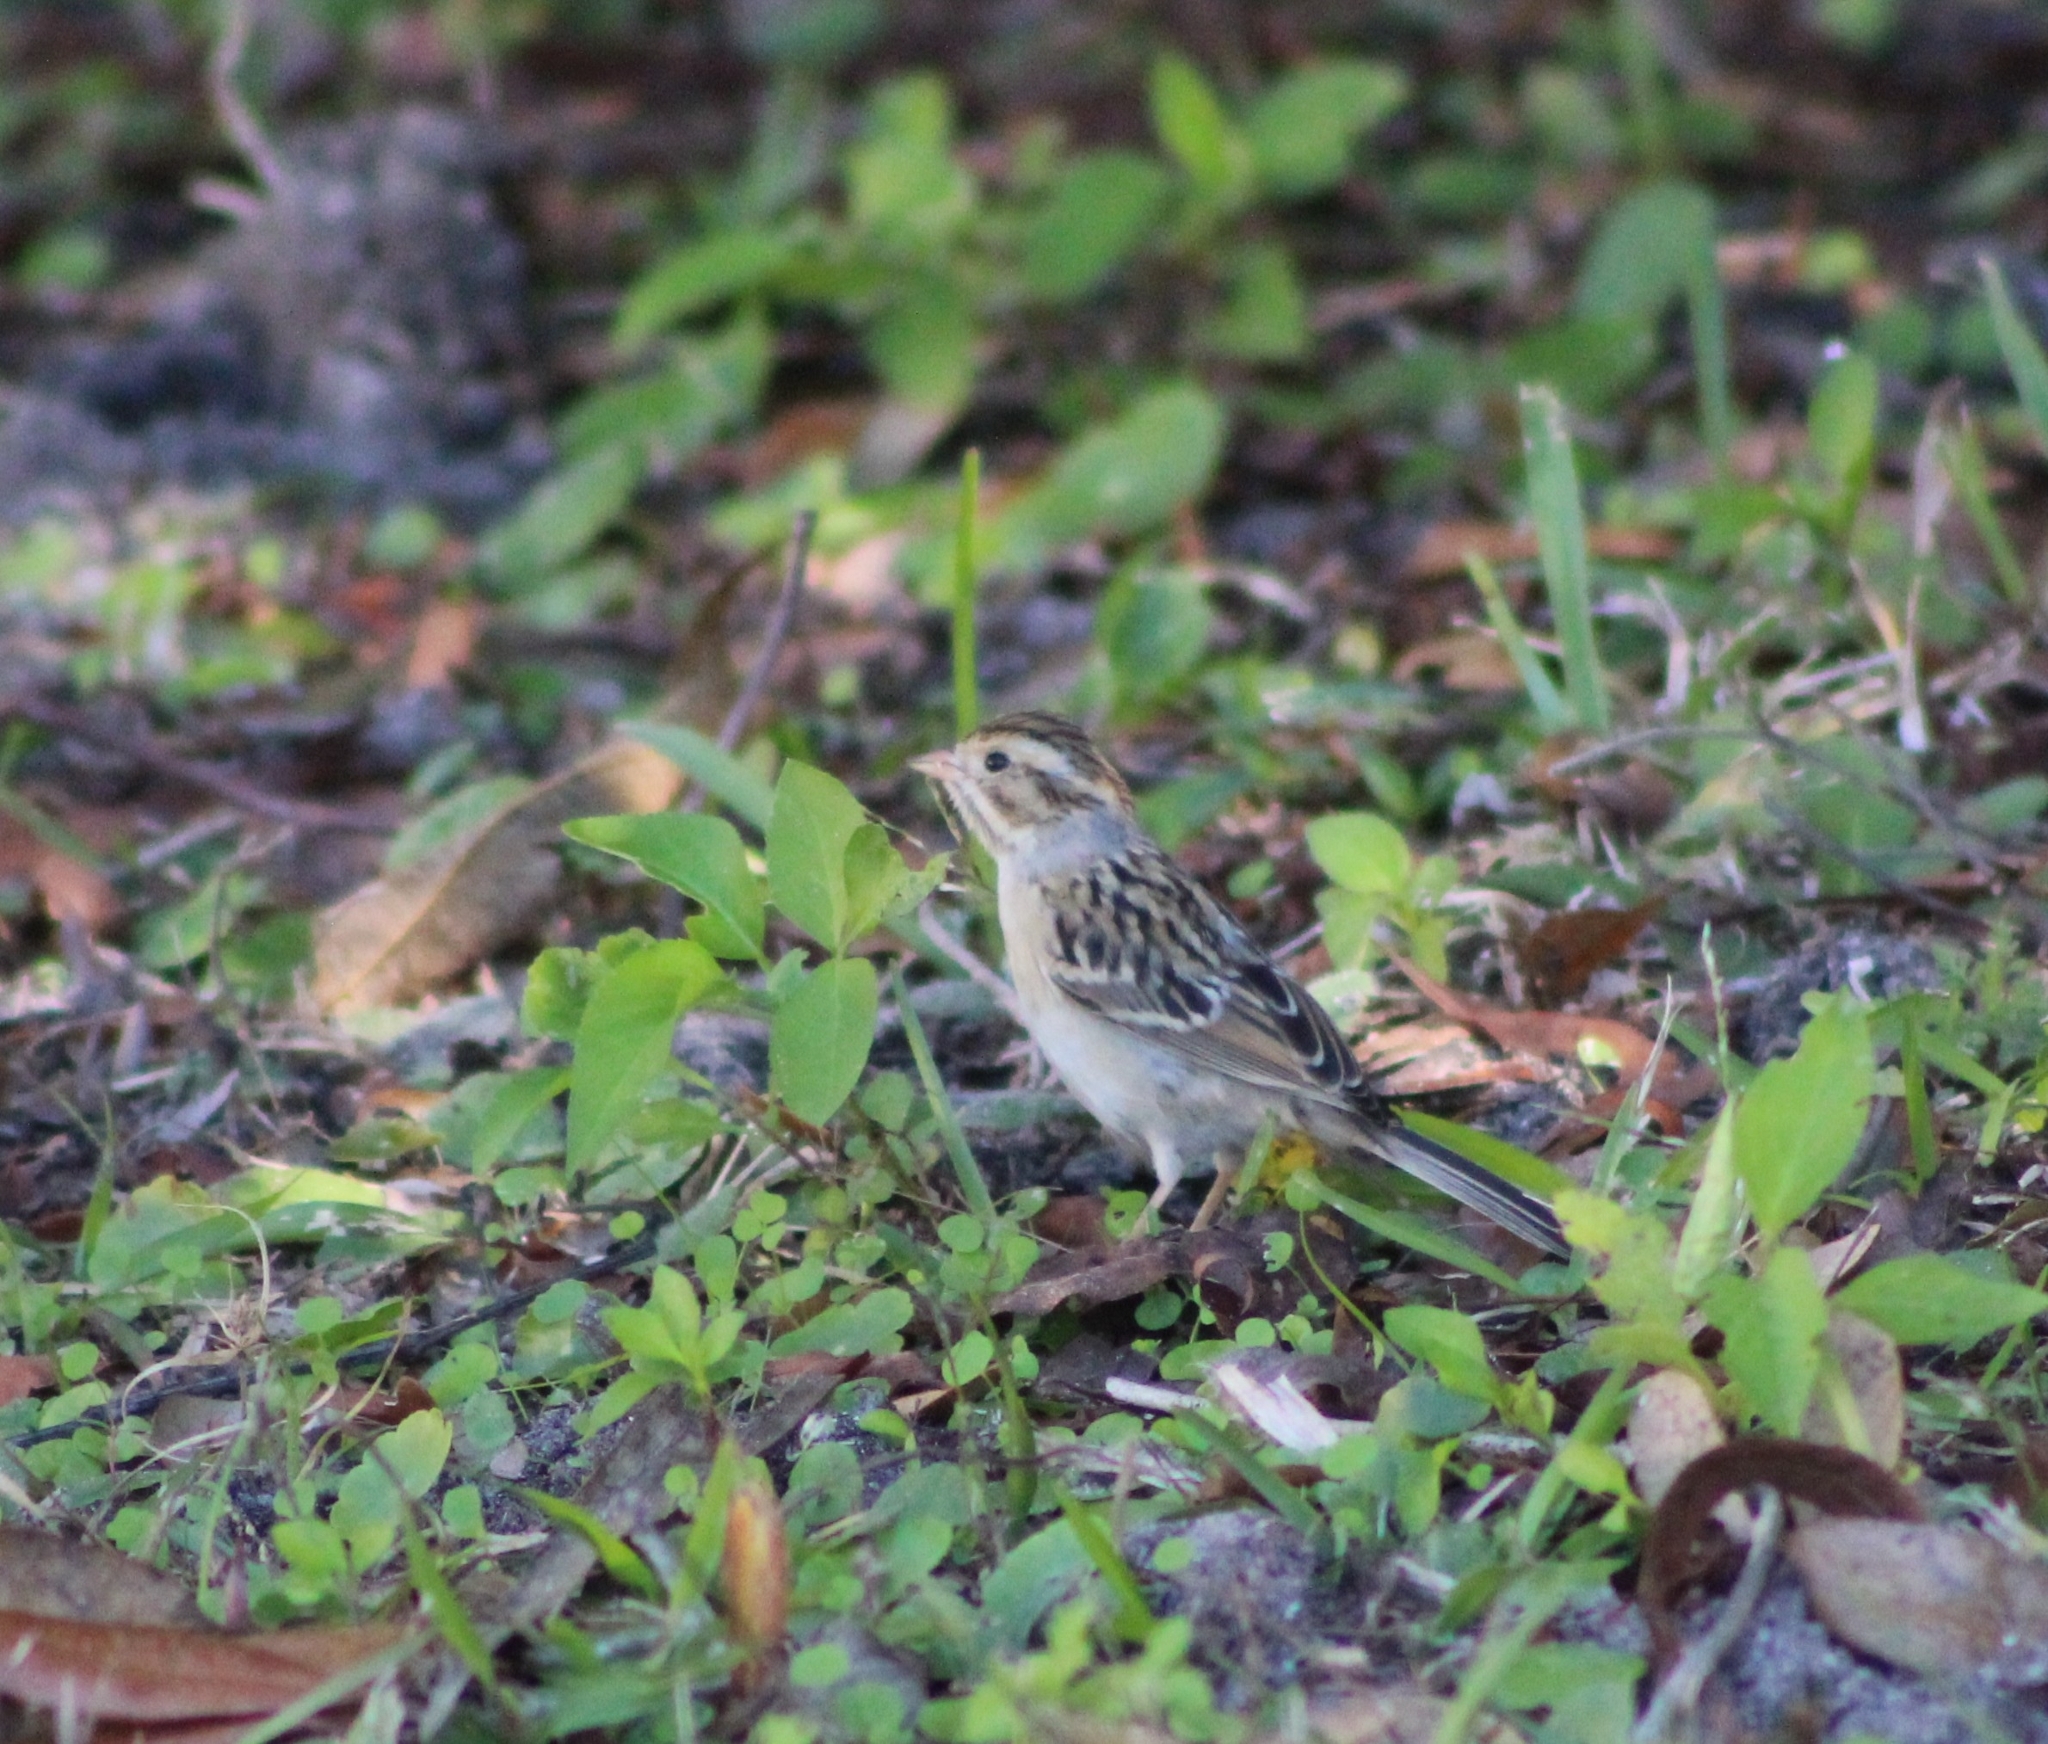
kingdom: Animalia
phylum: Chordata
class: Aves
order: Passeriformes
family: Passerellidae
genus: Spizella
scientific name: Spizella pallida
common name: Clay-colored sparrow
